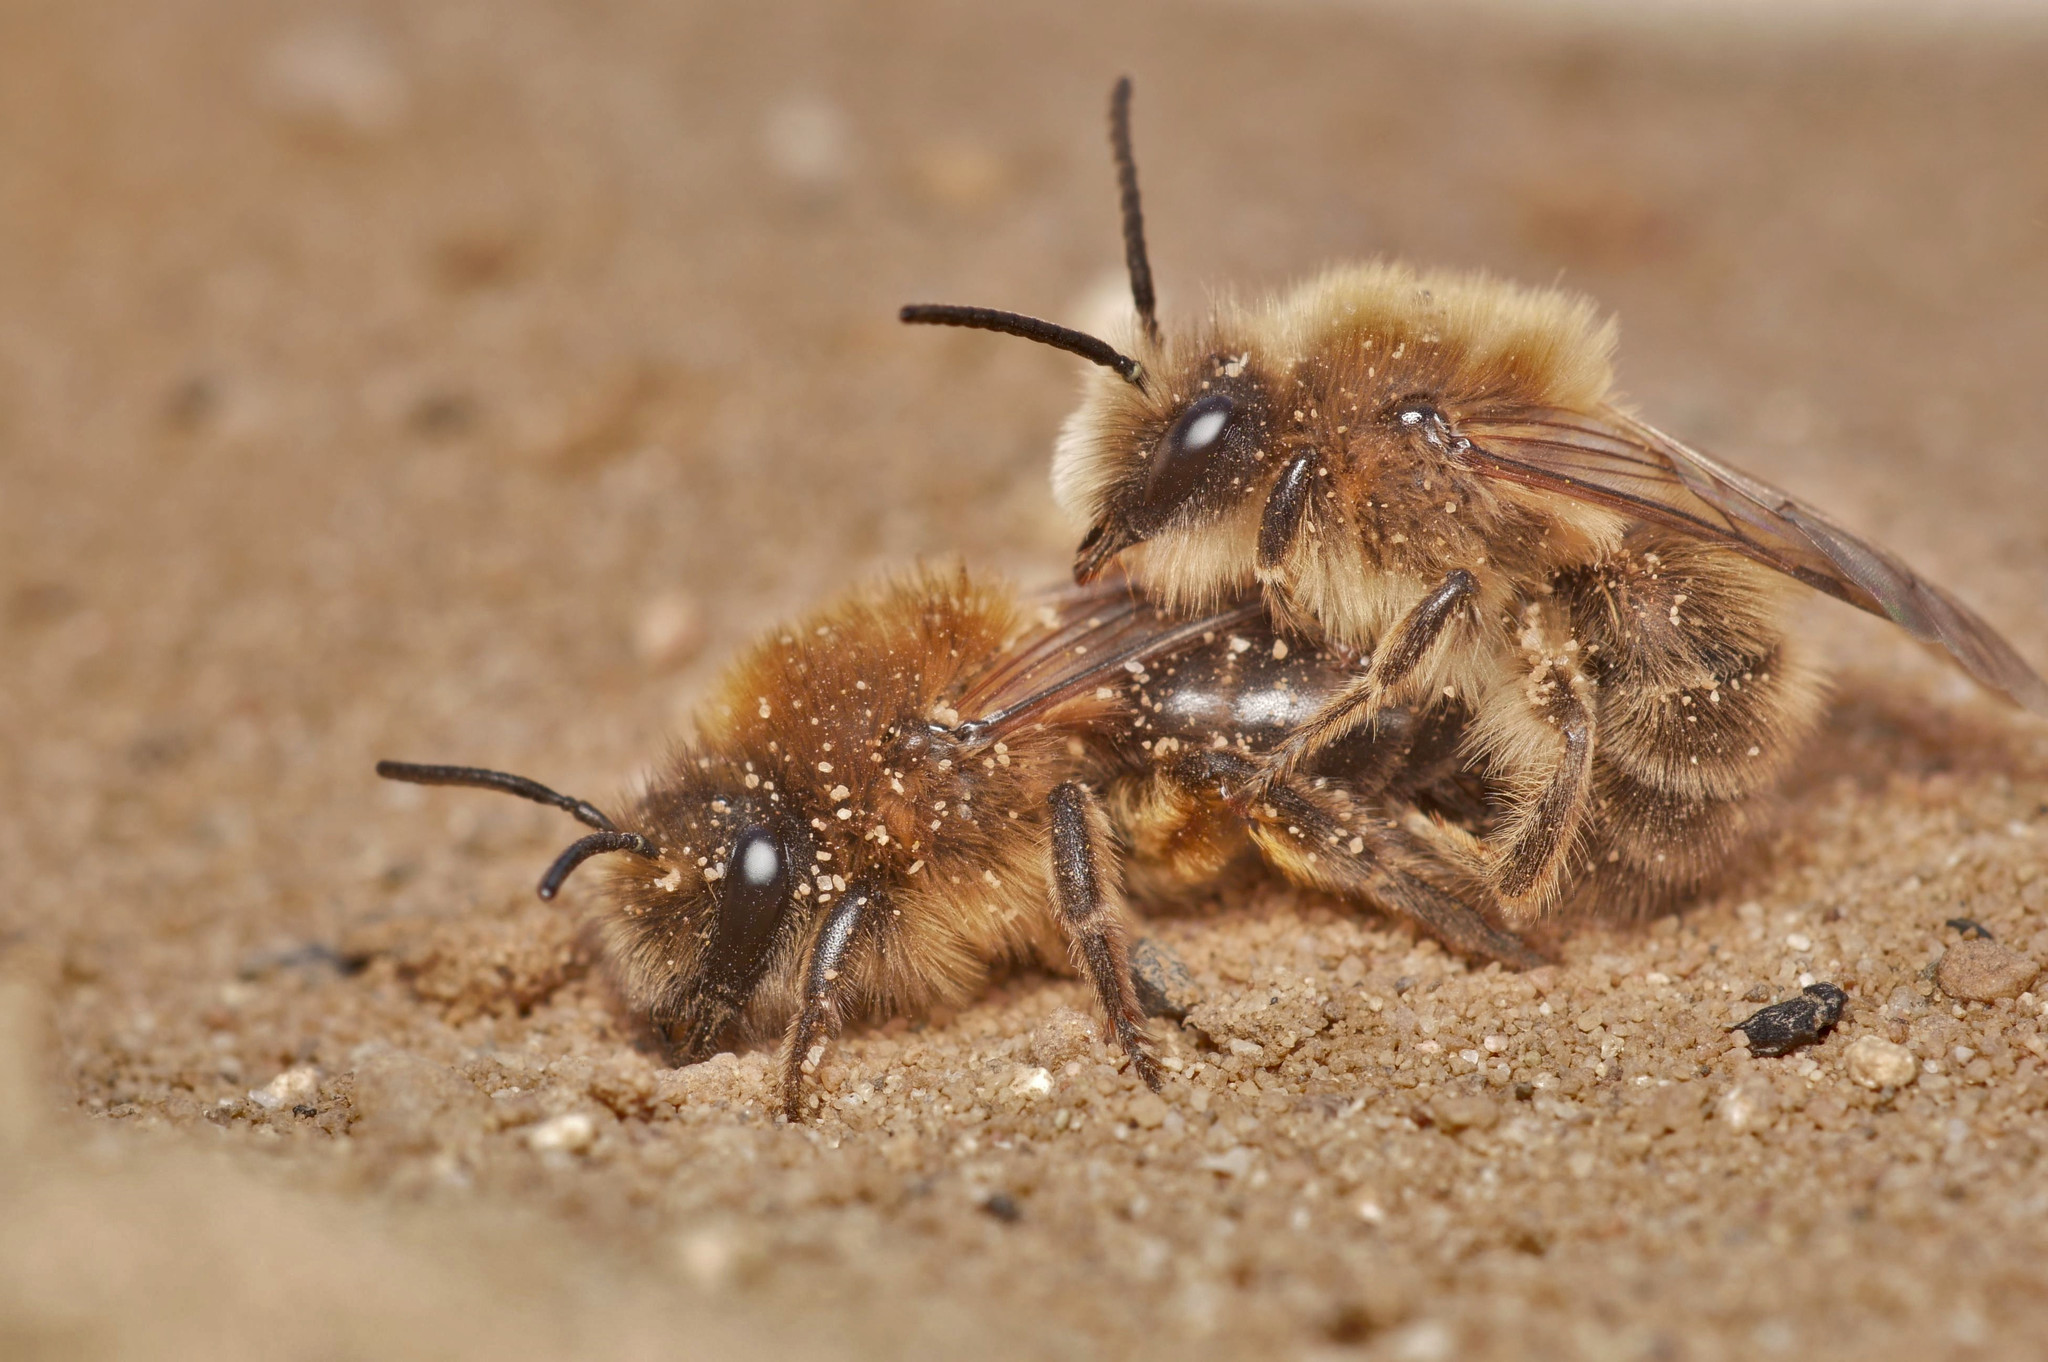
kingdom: Animalia
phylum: Arthropoda
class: Insecta
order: Hymenoptera
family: Colletidae
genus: Colletes
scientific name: Colletes cunicularius
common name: Early colletes
